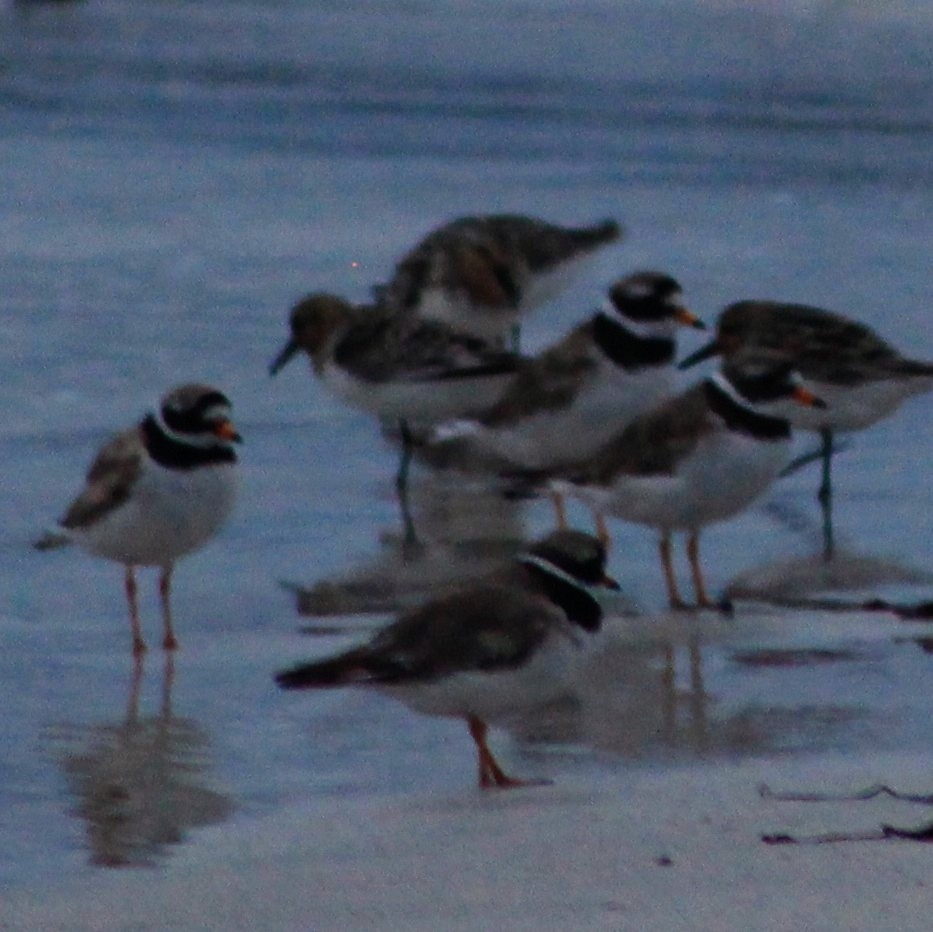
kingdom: Animalia
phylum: Chordata
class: Aves
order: Charadriiformes
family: Charadriidae
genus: Charadrius
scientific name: Charadrius hiaticula
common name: Common ringed plover
